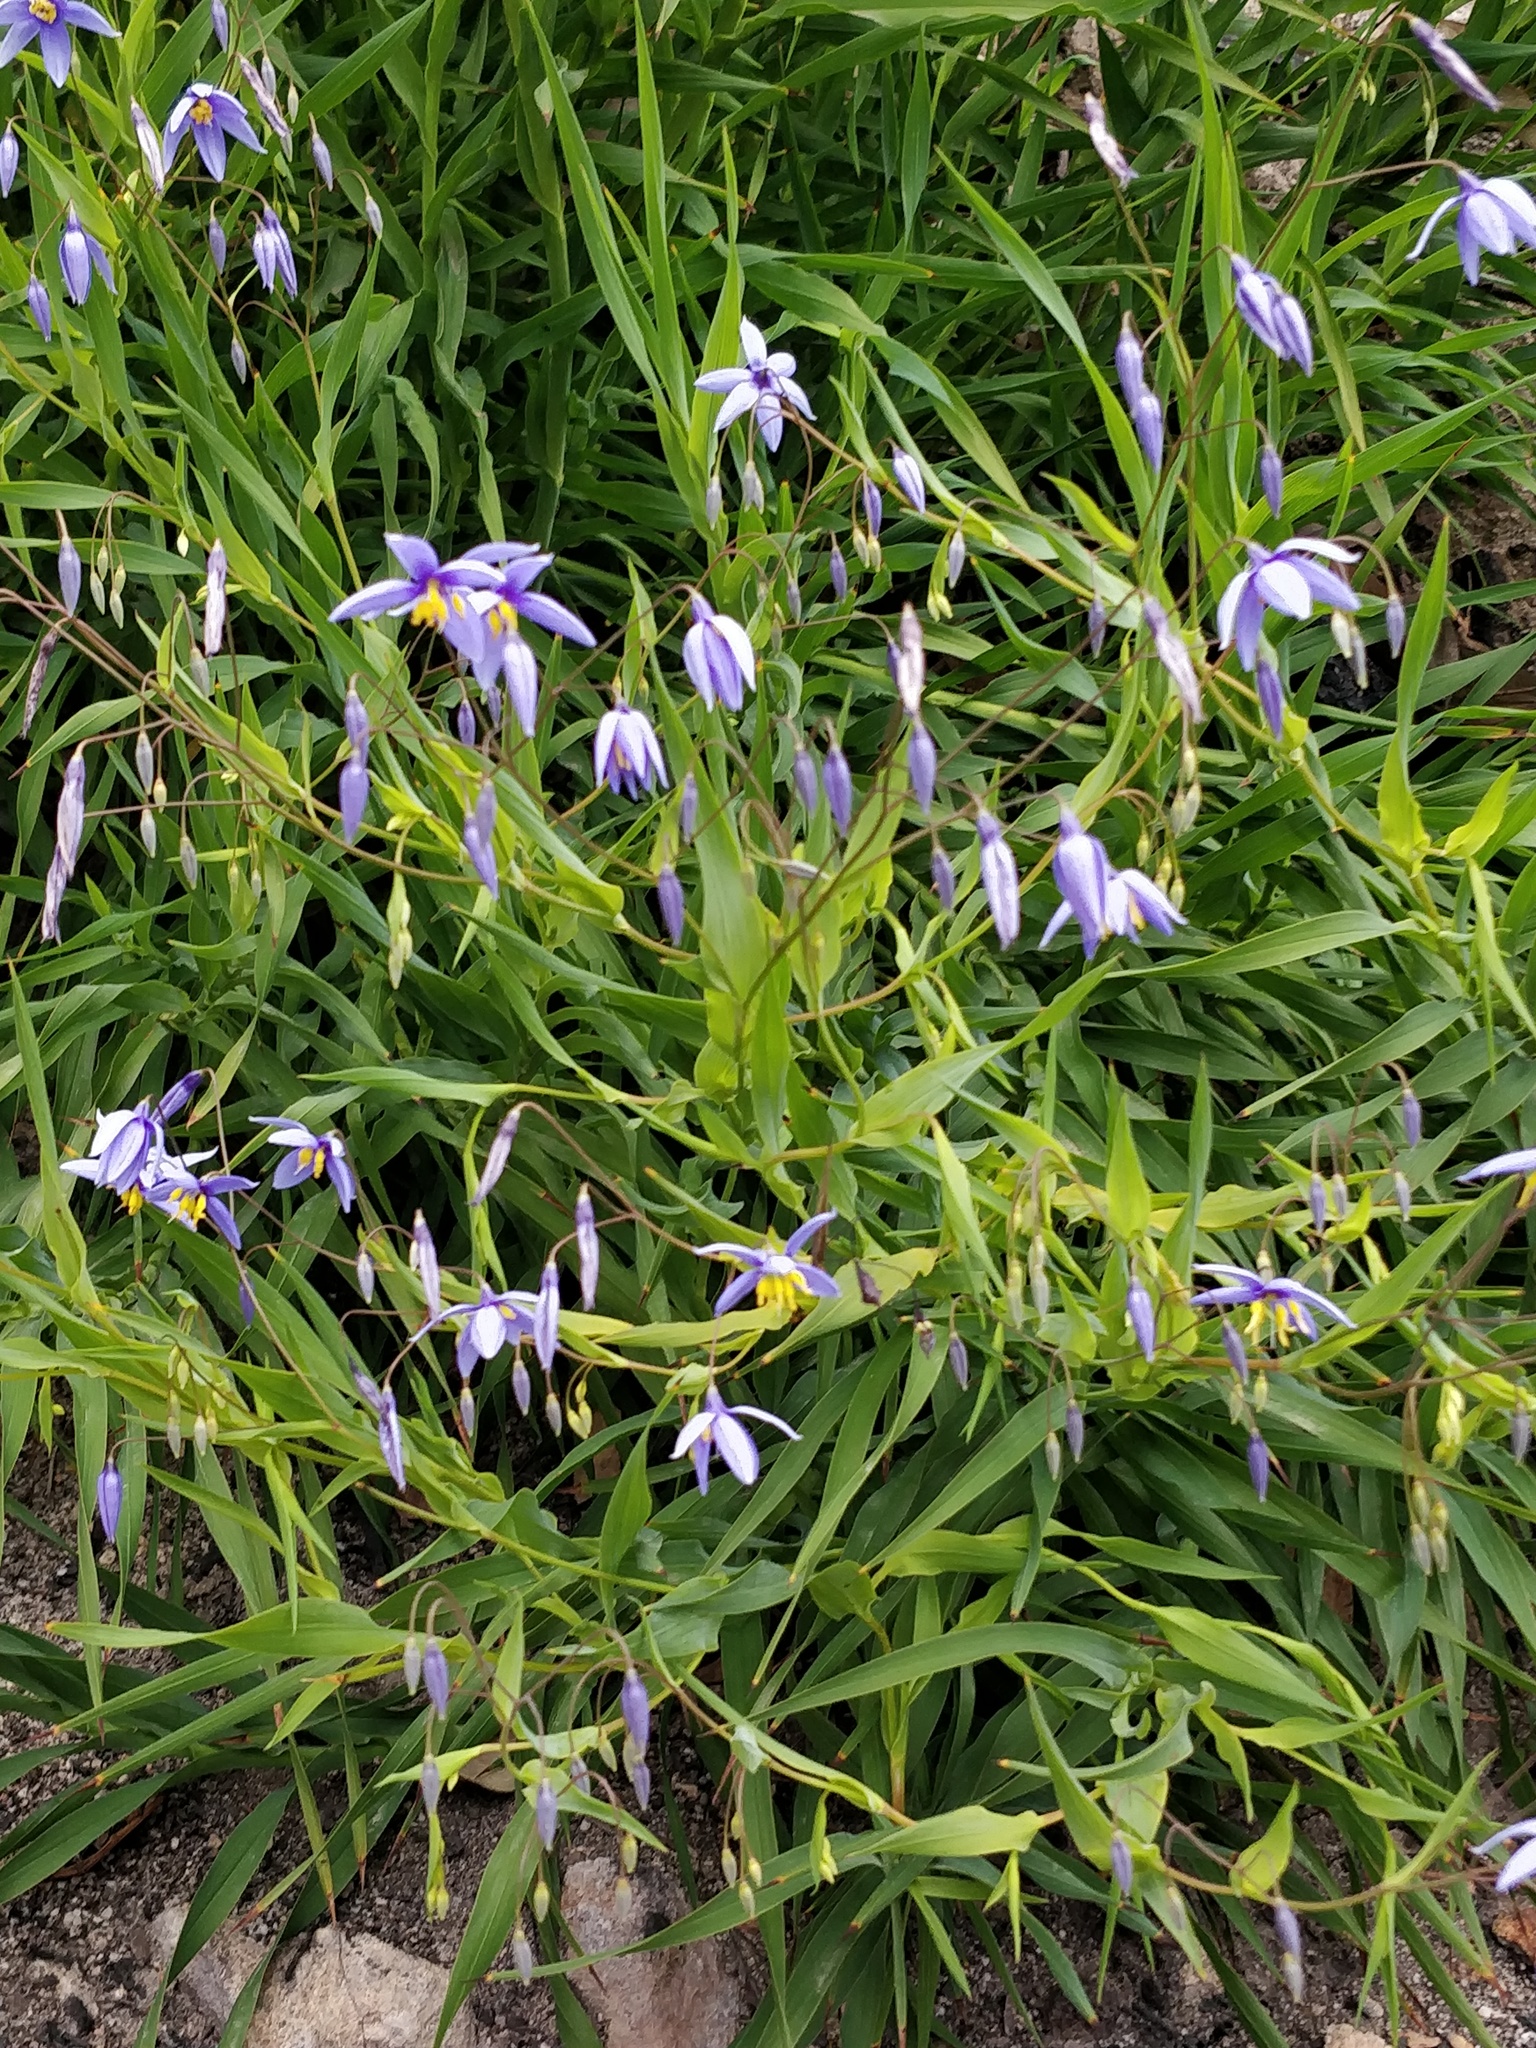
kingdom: Plantae
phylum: Tracheophyta
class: Liliopsida
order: Asparagales
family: Asphodelaceae
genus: Stypandra
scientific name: Stypandra glauca
